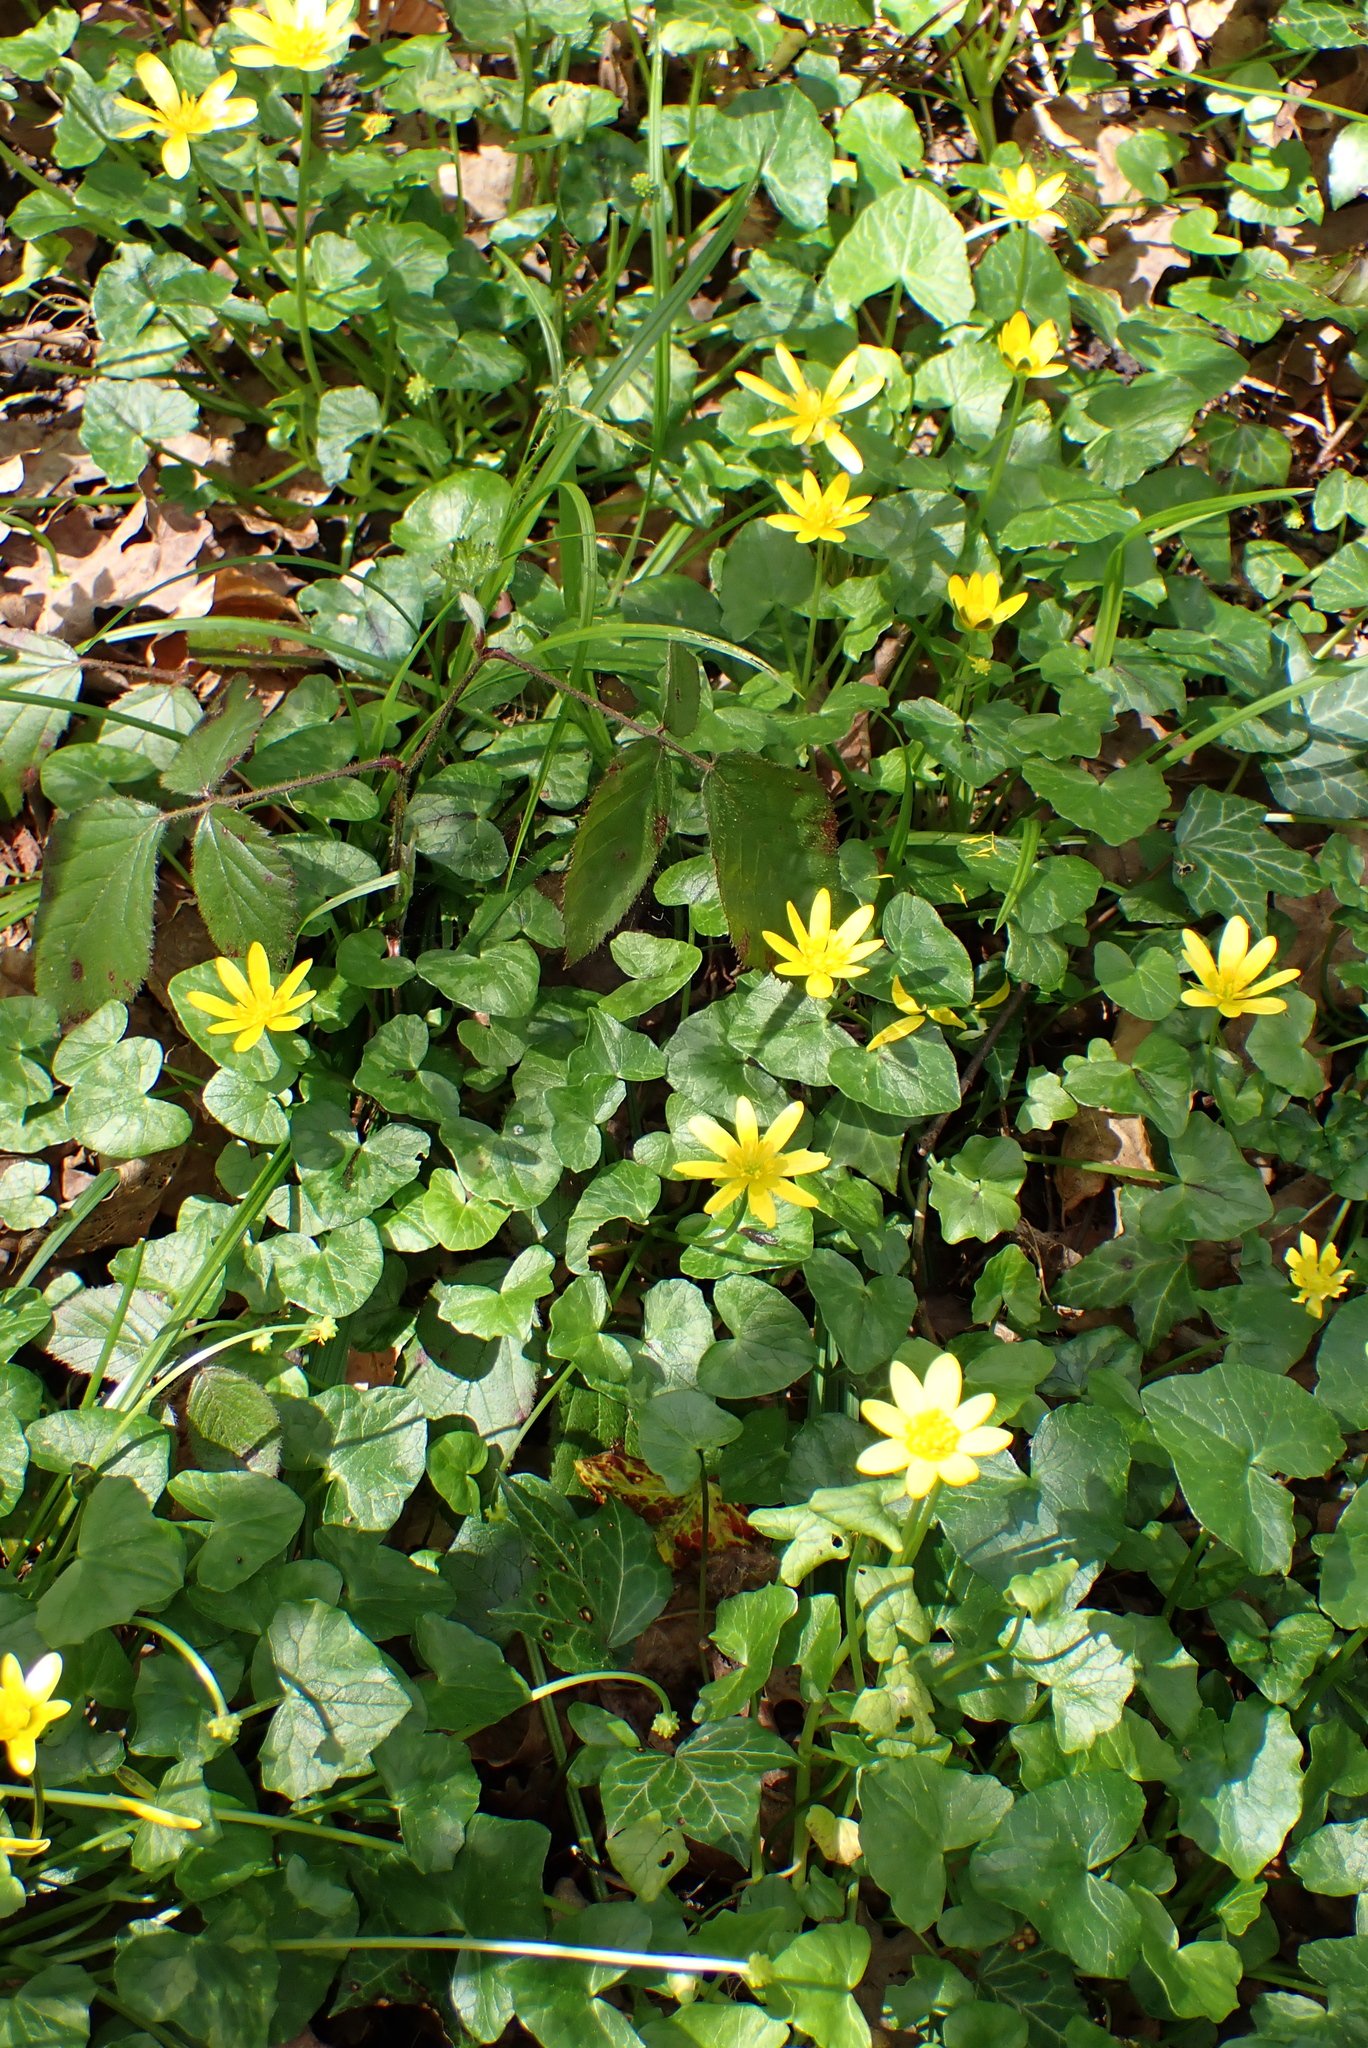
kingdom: Plantae
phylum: Tracheophyta
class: Magnoliopsida
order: Ranunculales
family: Ranunculaceae
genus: Ficaria
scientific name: Ficaria verna
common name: Lesser celandine
